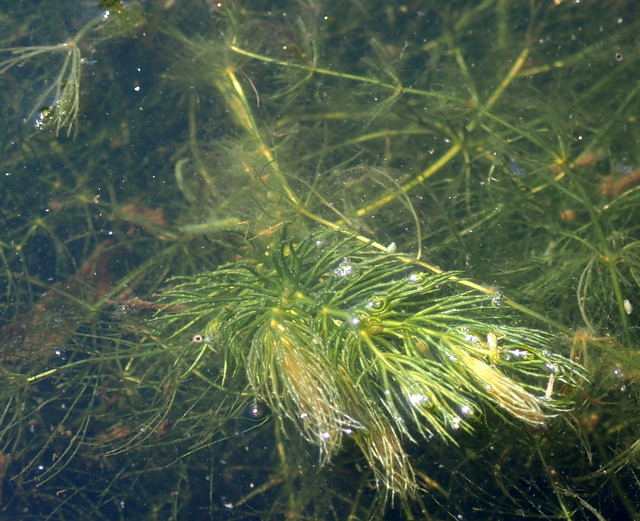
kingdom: Plantae
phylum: Tracheophyta
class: Magnoliopsida
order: Ceratophyllales
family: Ceratophyllaceae
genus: Ceratophyllum
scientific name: Ceratophyllum demersum
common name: Rigid hornwort
